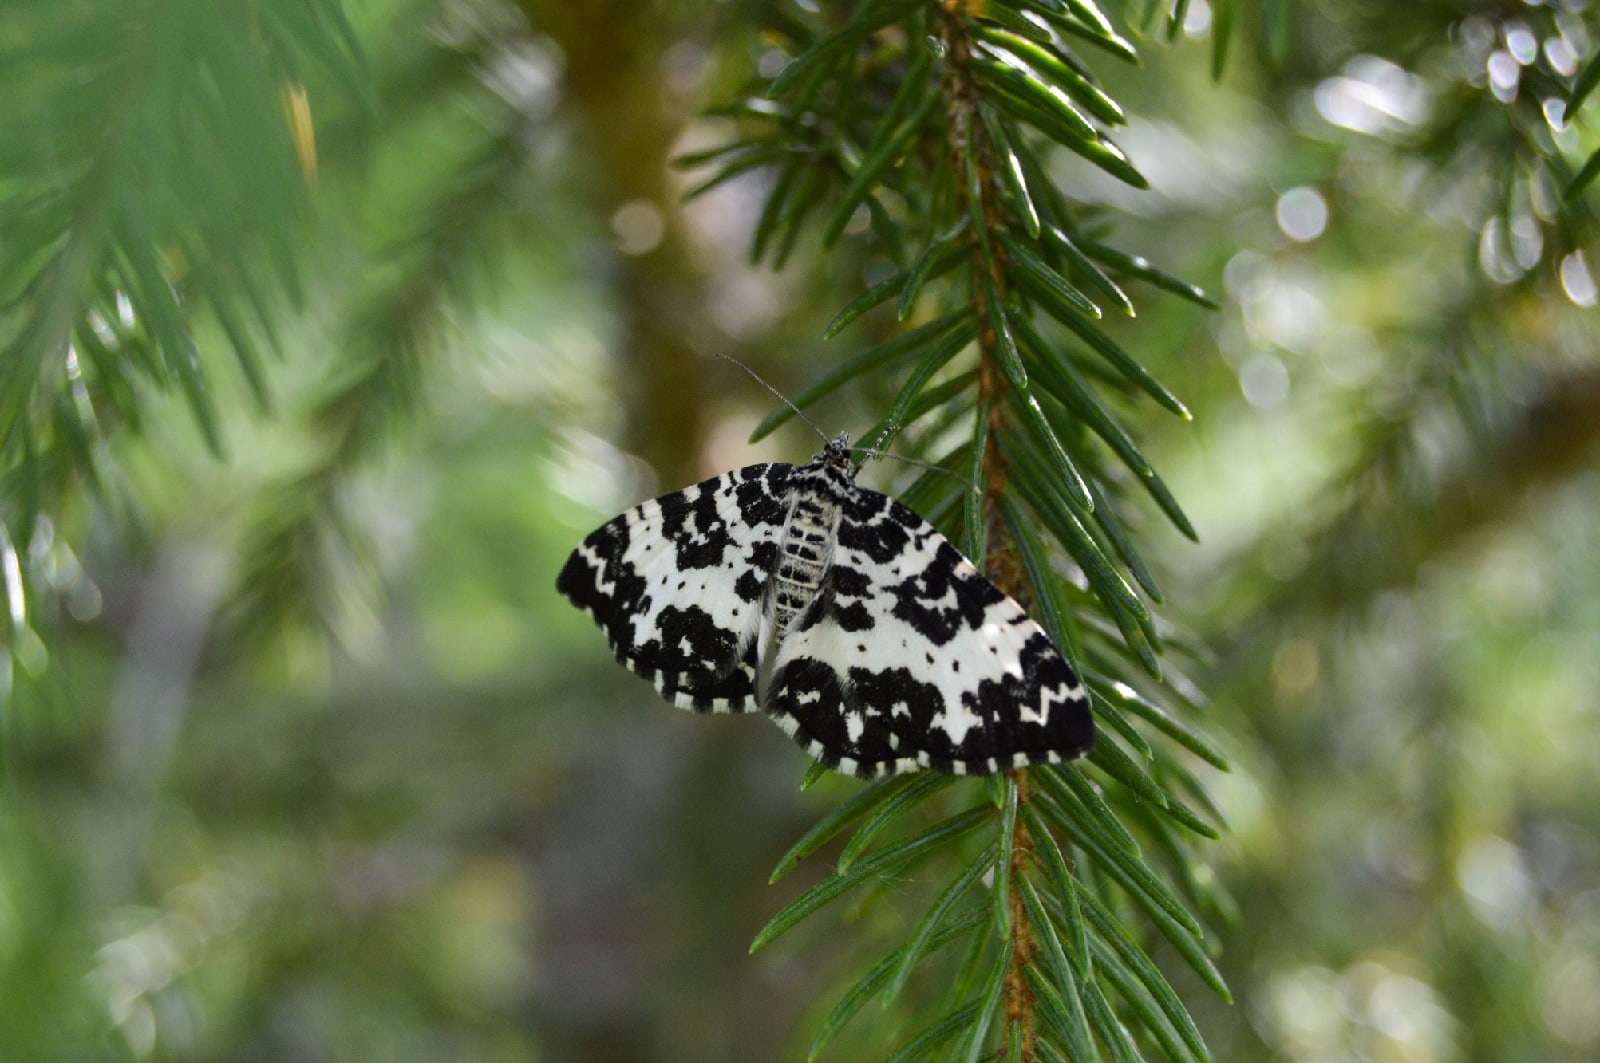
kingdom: Animalia
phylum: Arthropoda
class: Insecta
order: Lepidoptera
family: Geometridae
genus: Rheumaptera
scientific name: Rheumaptera hastata
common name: Argent & sable
